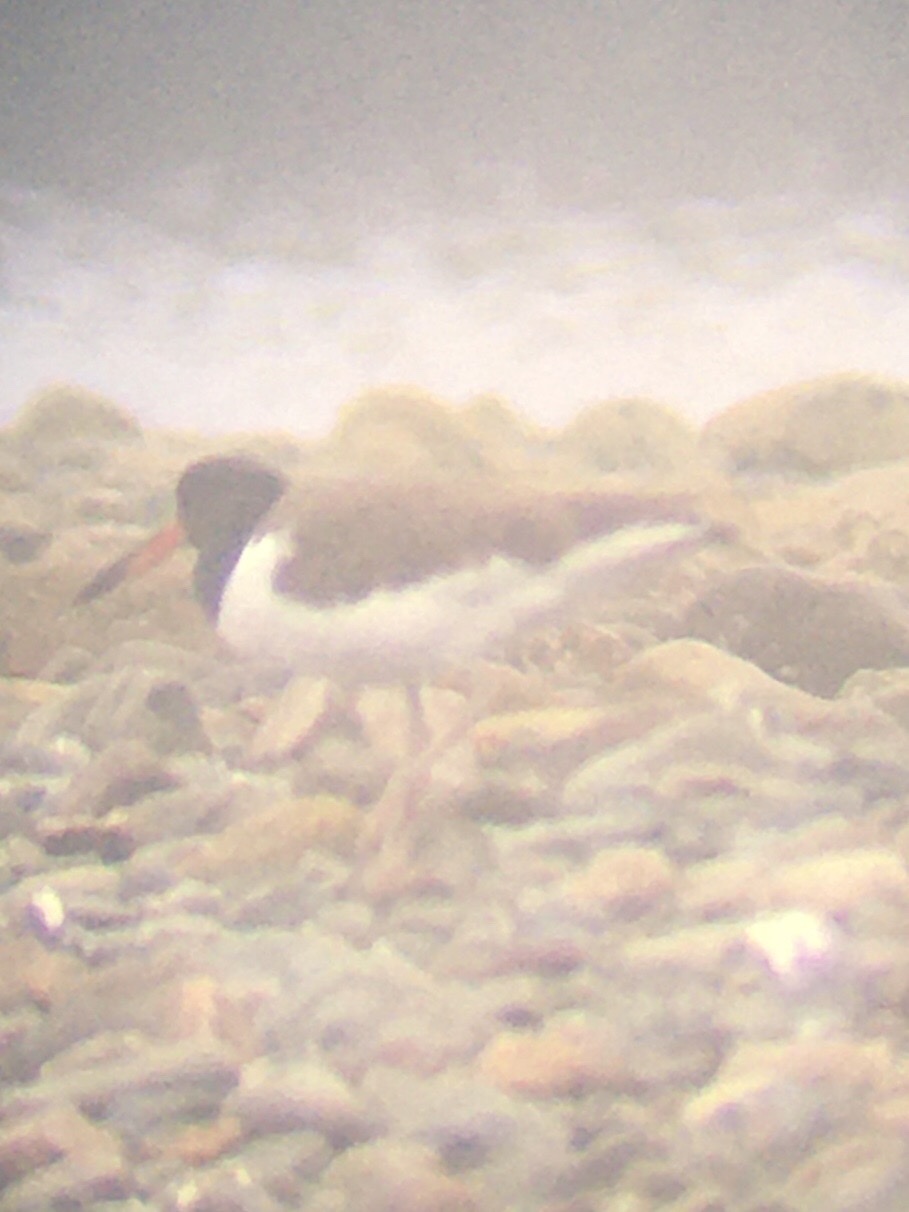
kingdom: Animalia
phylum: Chordata
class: Aves
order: Charadriiformes
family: Haematopodidae
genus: Haematopus
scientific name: Haematopus palliatus
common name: American oystercatcher
